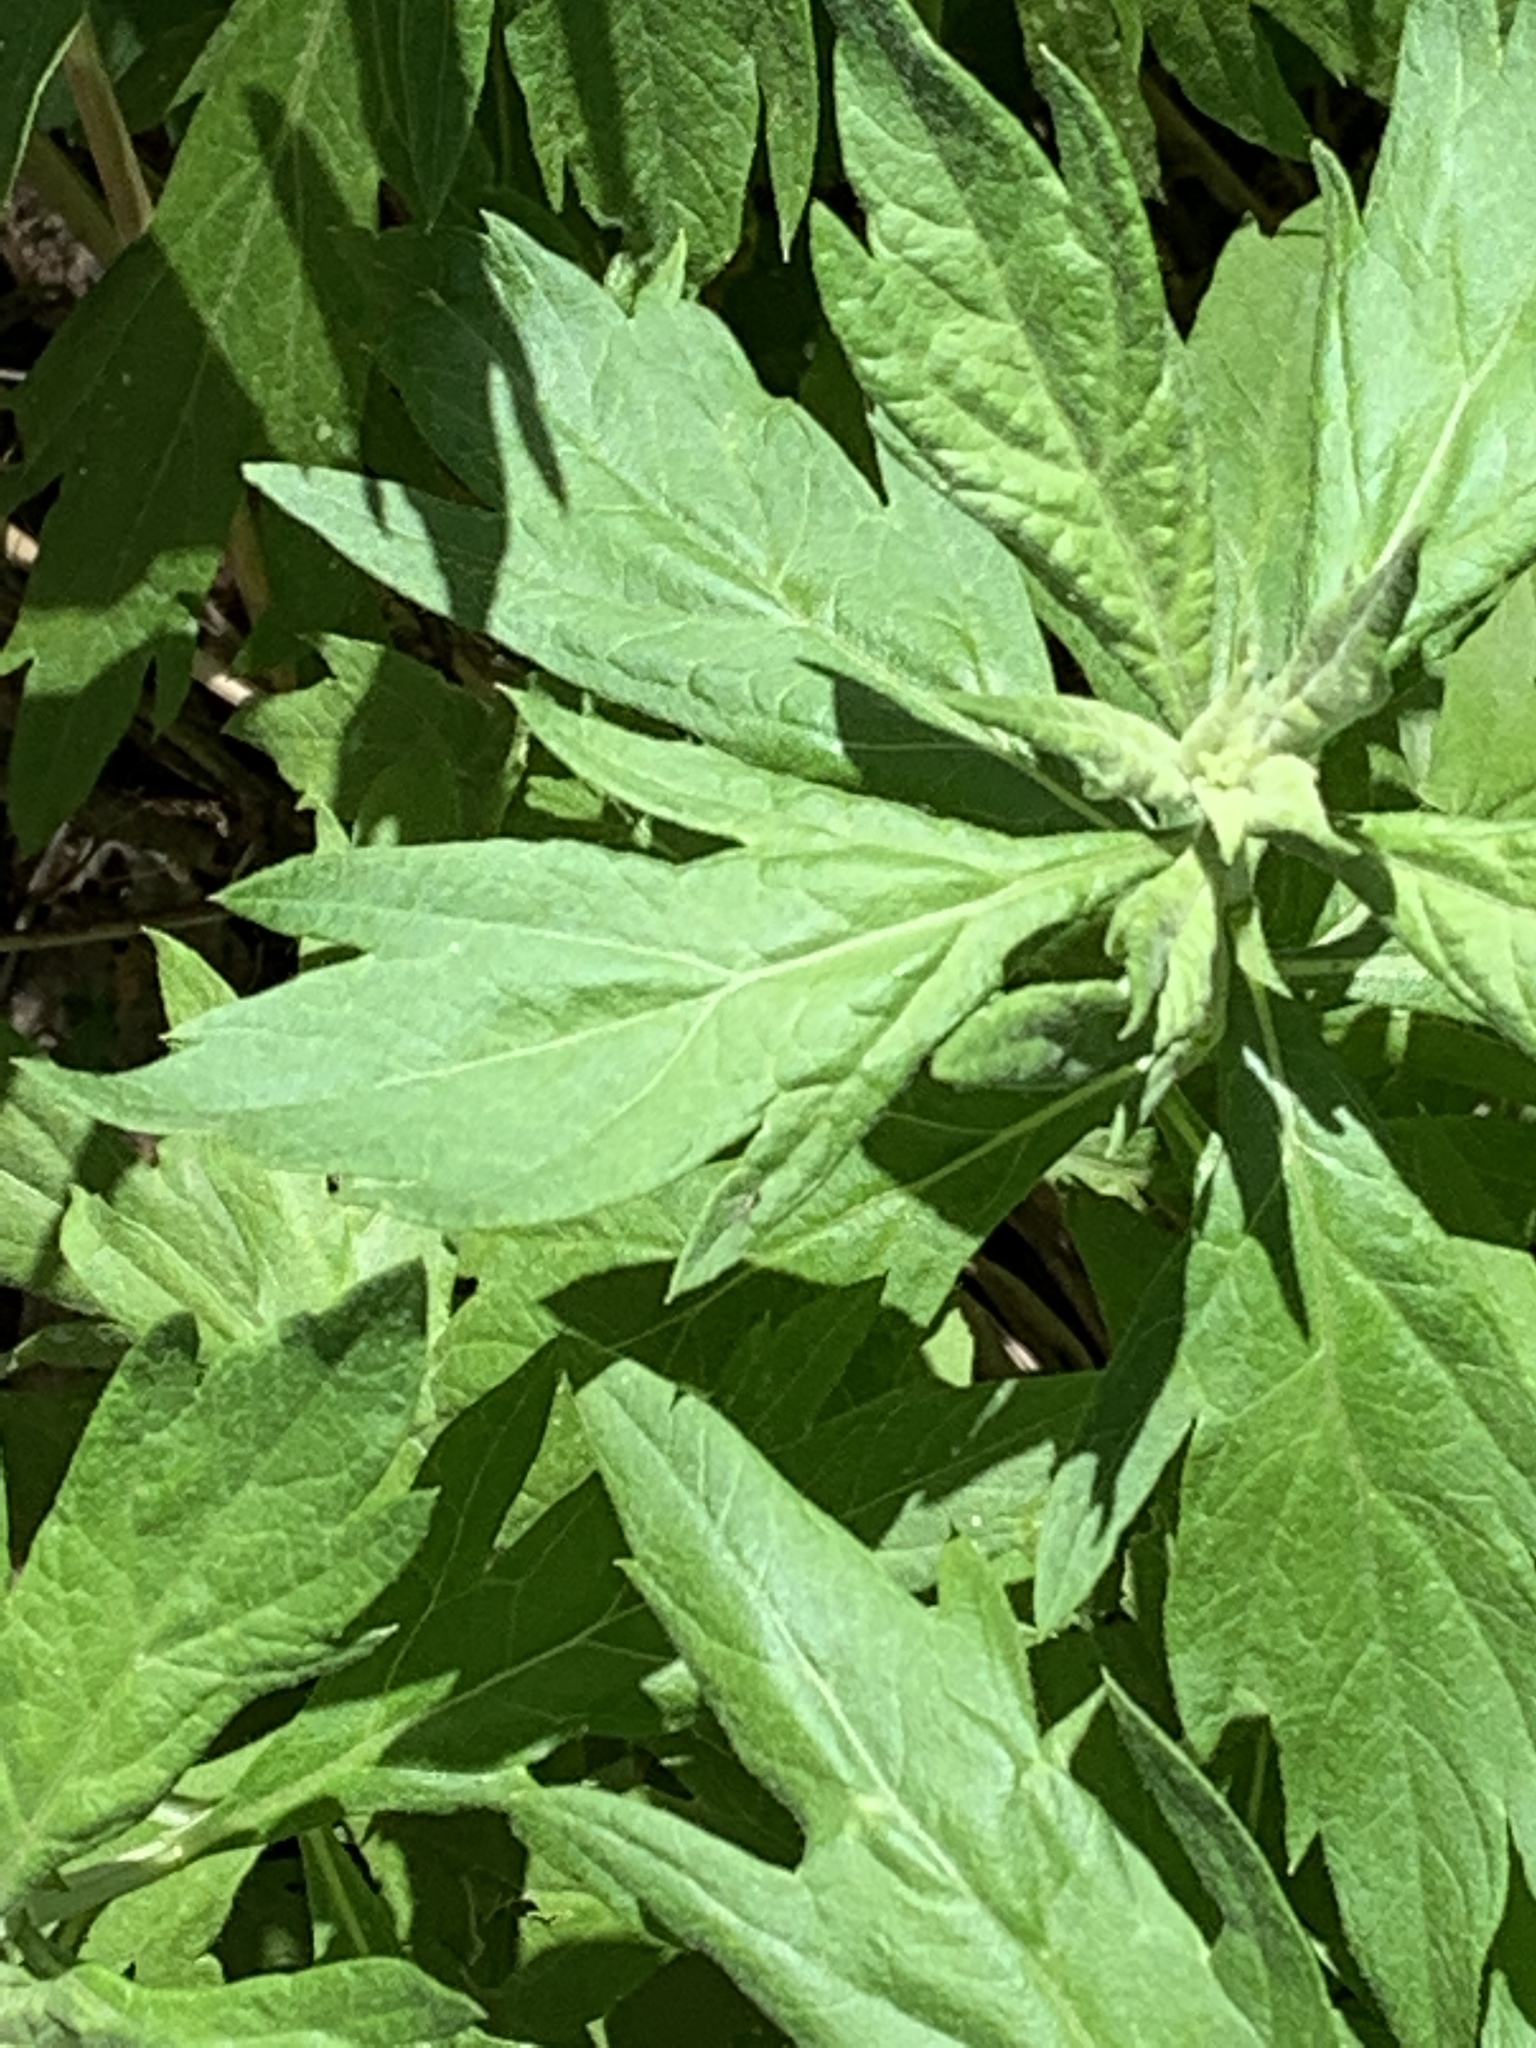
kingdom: Plantae
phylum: Tracheophyta
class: Magnoliopsida
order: Asterales
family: Asteraceae
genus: Artemisia
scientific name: Artemisia douglasiana
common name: Northwest mugwort
